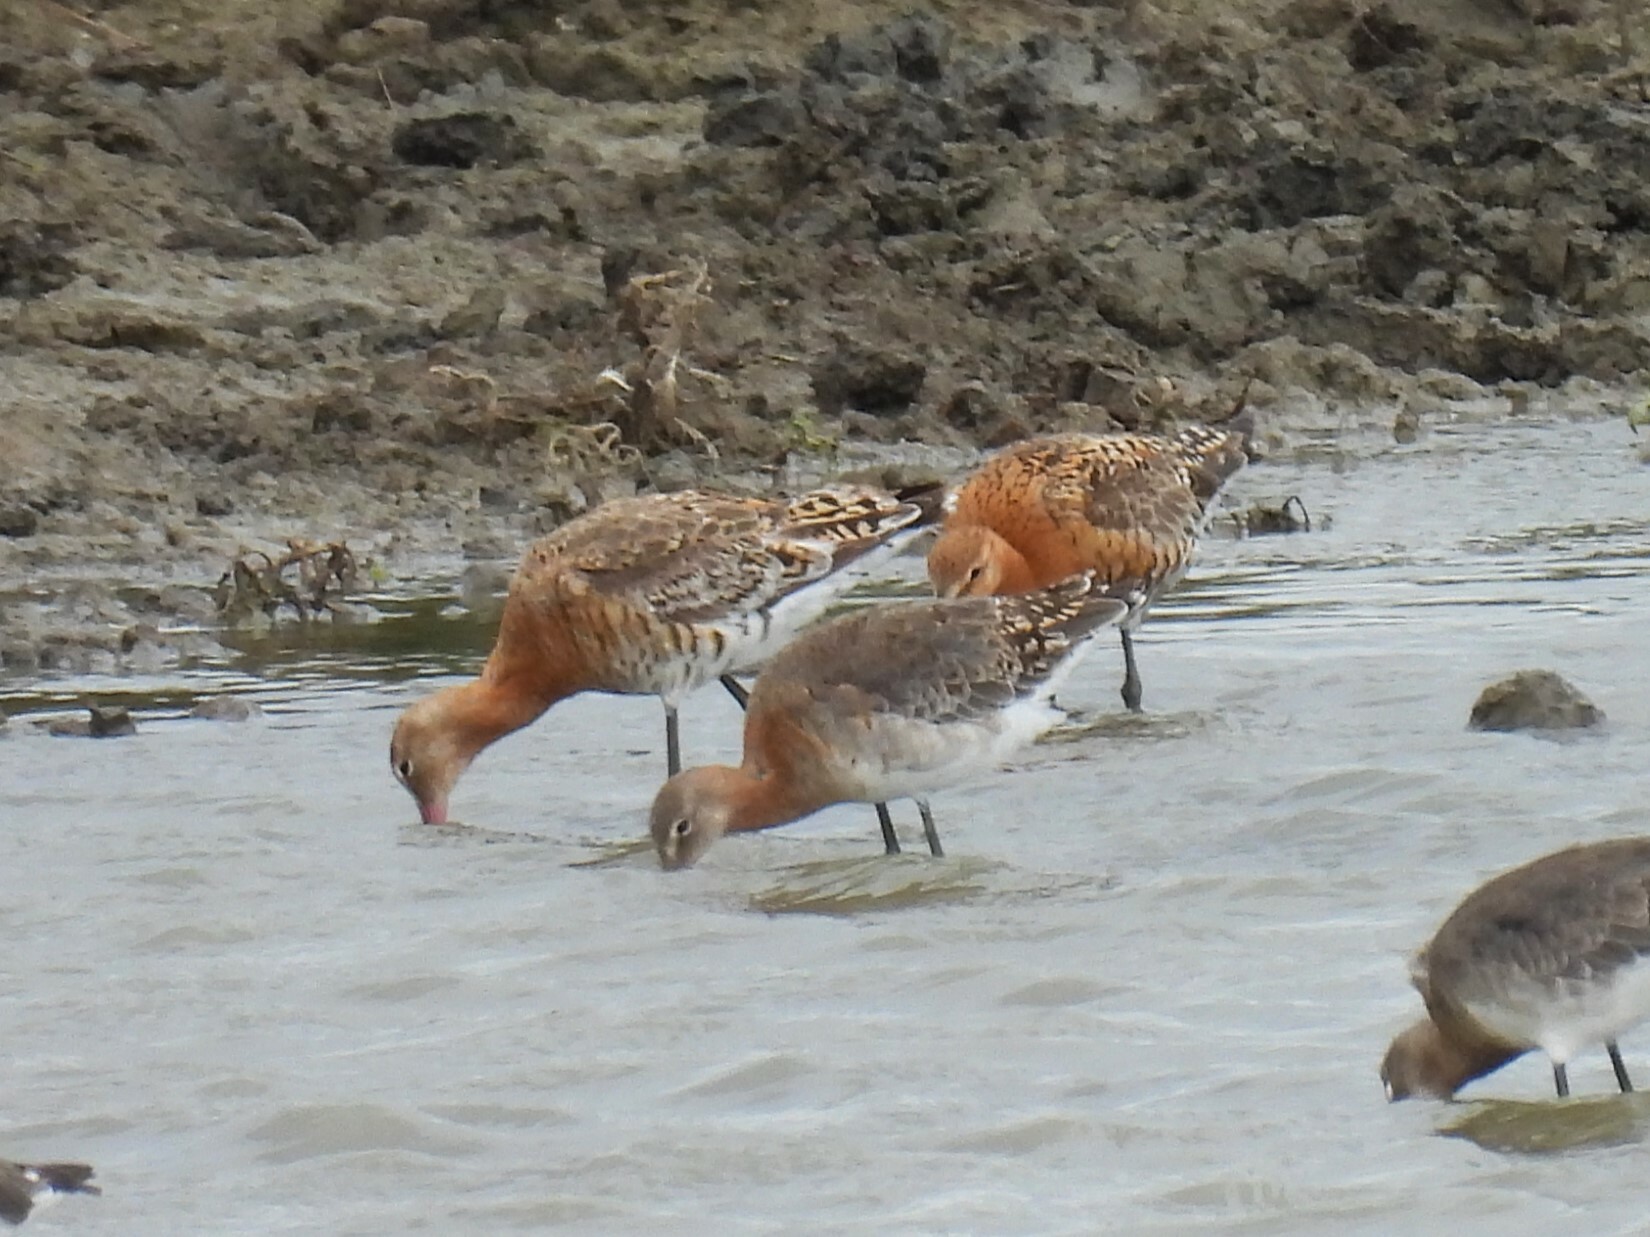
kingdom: Animalia
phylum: Chordata
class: Aves
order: Charadriiformes
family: Scolopacidae
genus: Limosa
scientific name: Limosa limosa
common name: Black-tailed godwit
